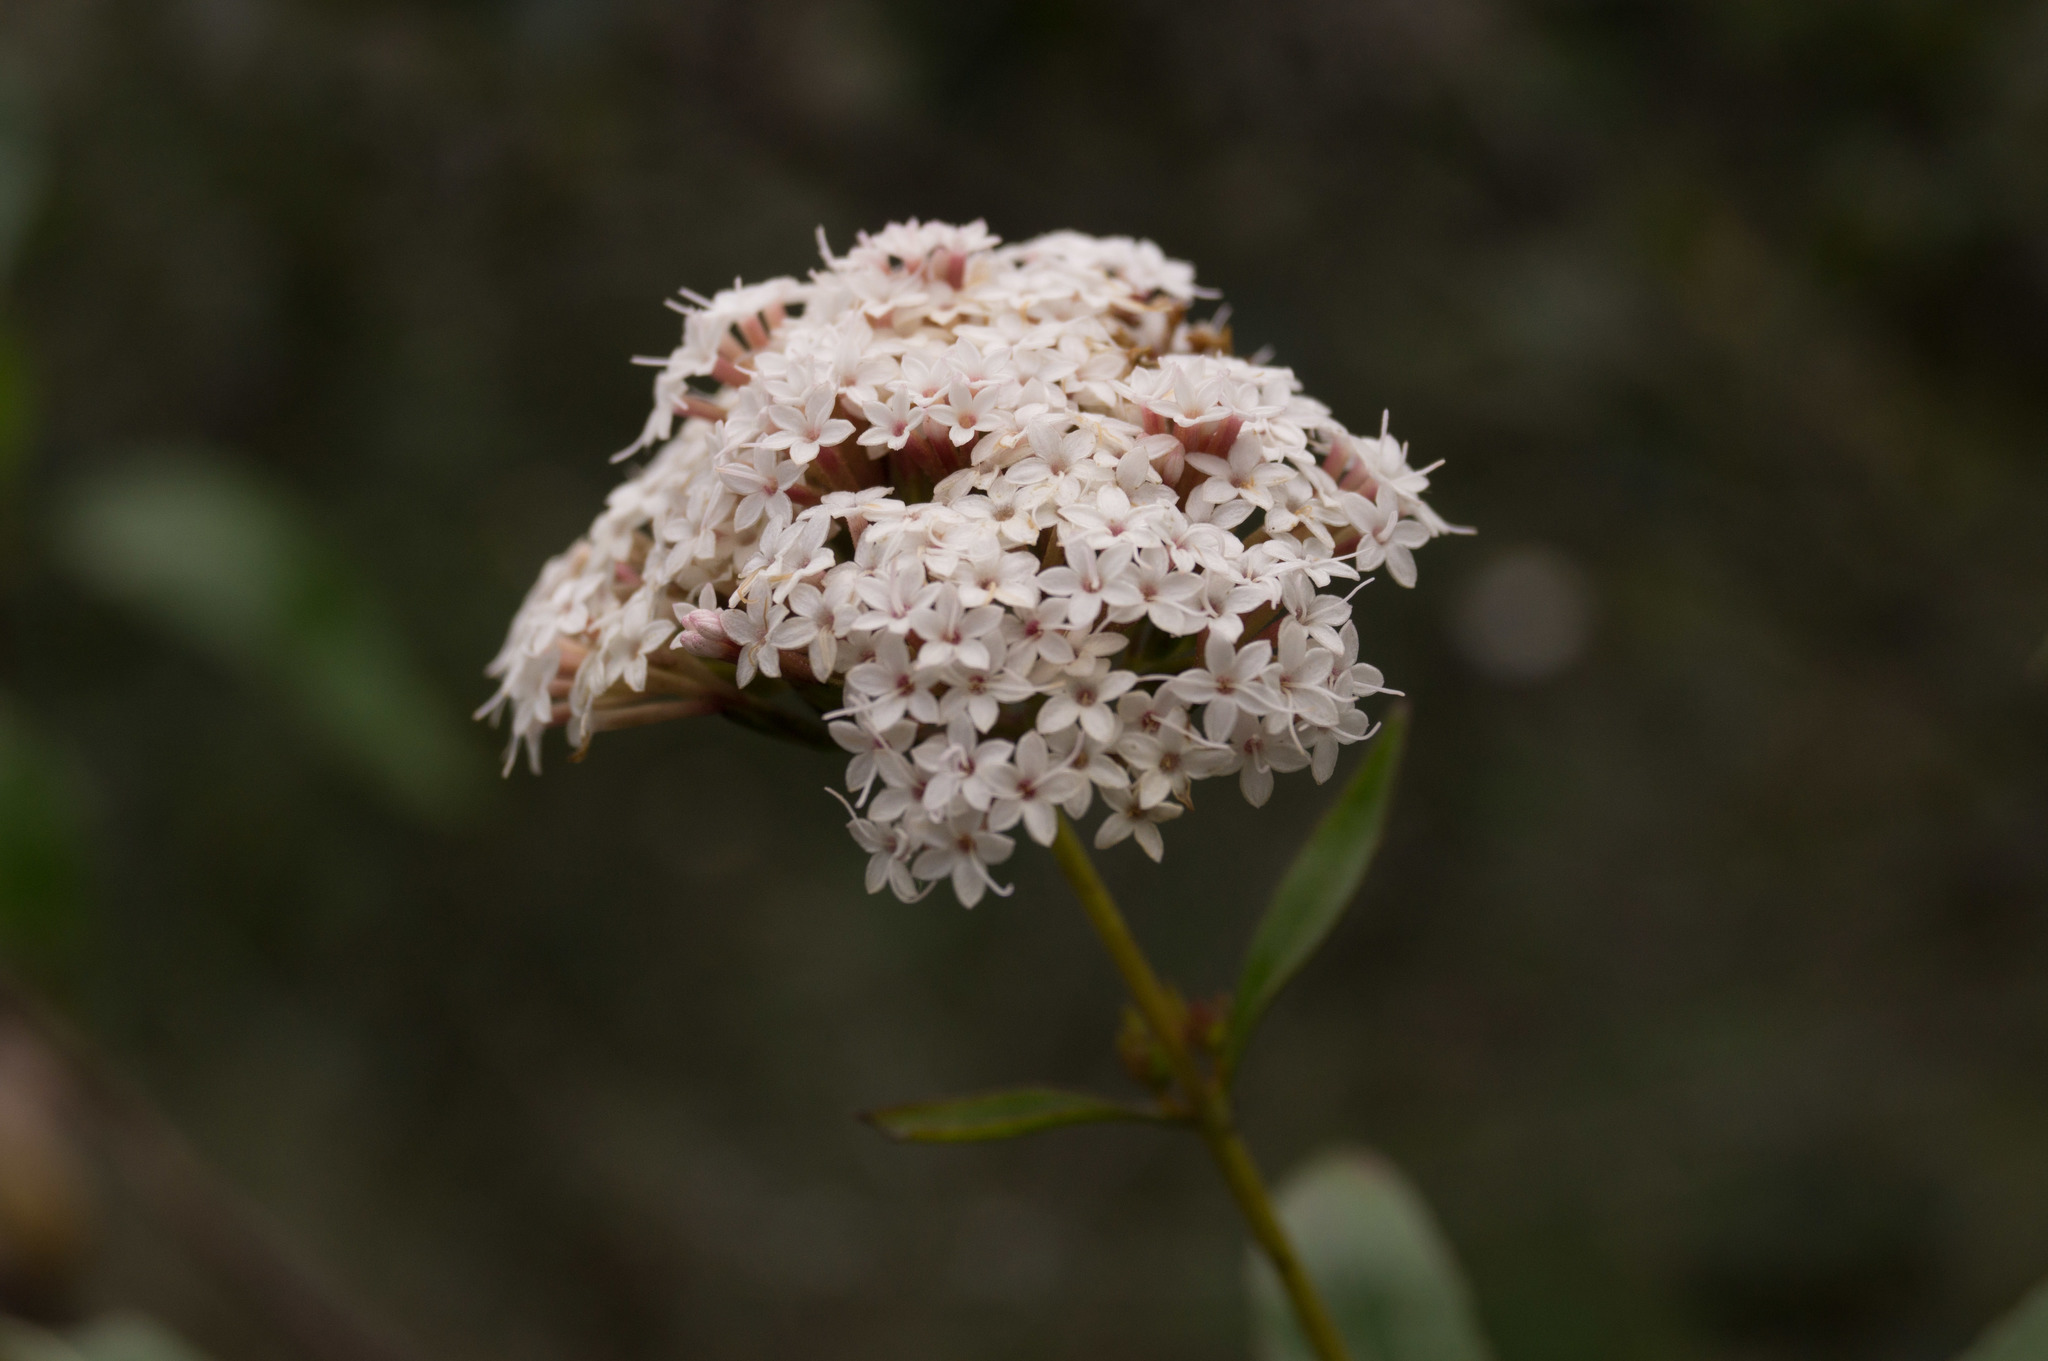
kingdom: Plantae
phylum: Tracheophyta
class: Magnoliopsida
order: Asterales
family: Asteraceae
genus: Stevia
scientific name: Stevia salicifolia
